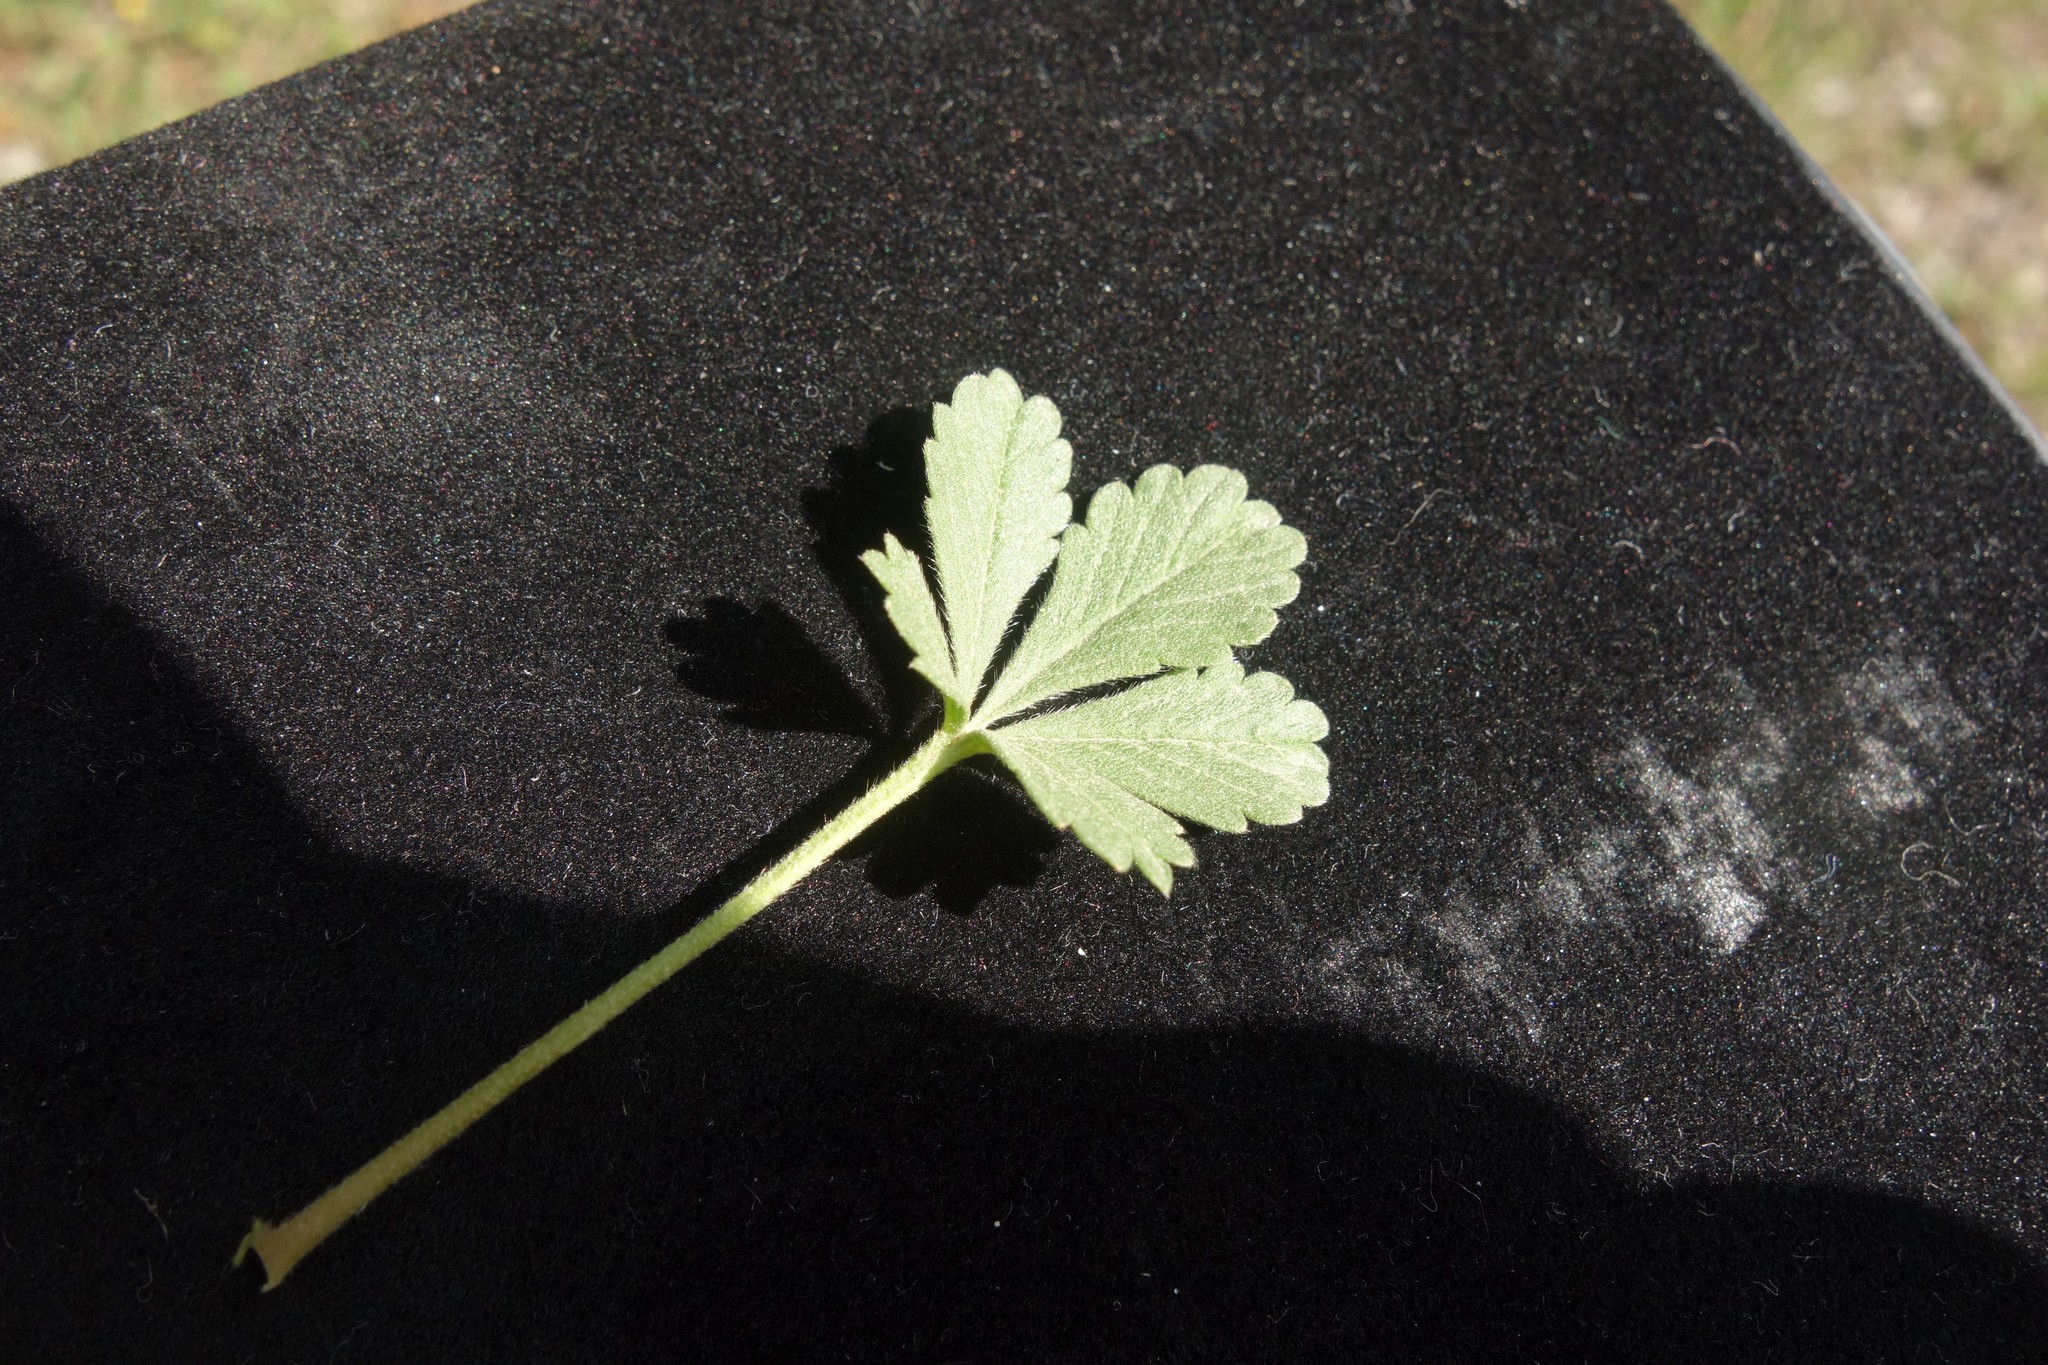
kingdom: Plantae
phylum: Tracheophyta
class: Magnoliopsida
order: Rosales
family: Rosaceae
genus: Potentilla
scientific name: Potentilla incana
